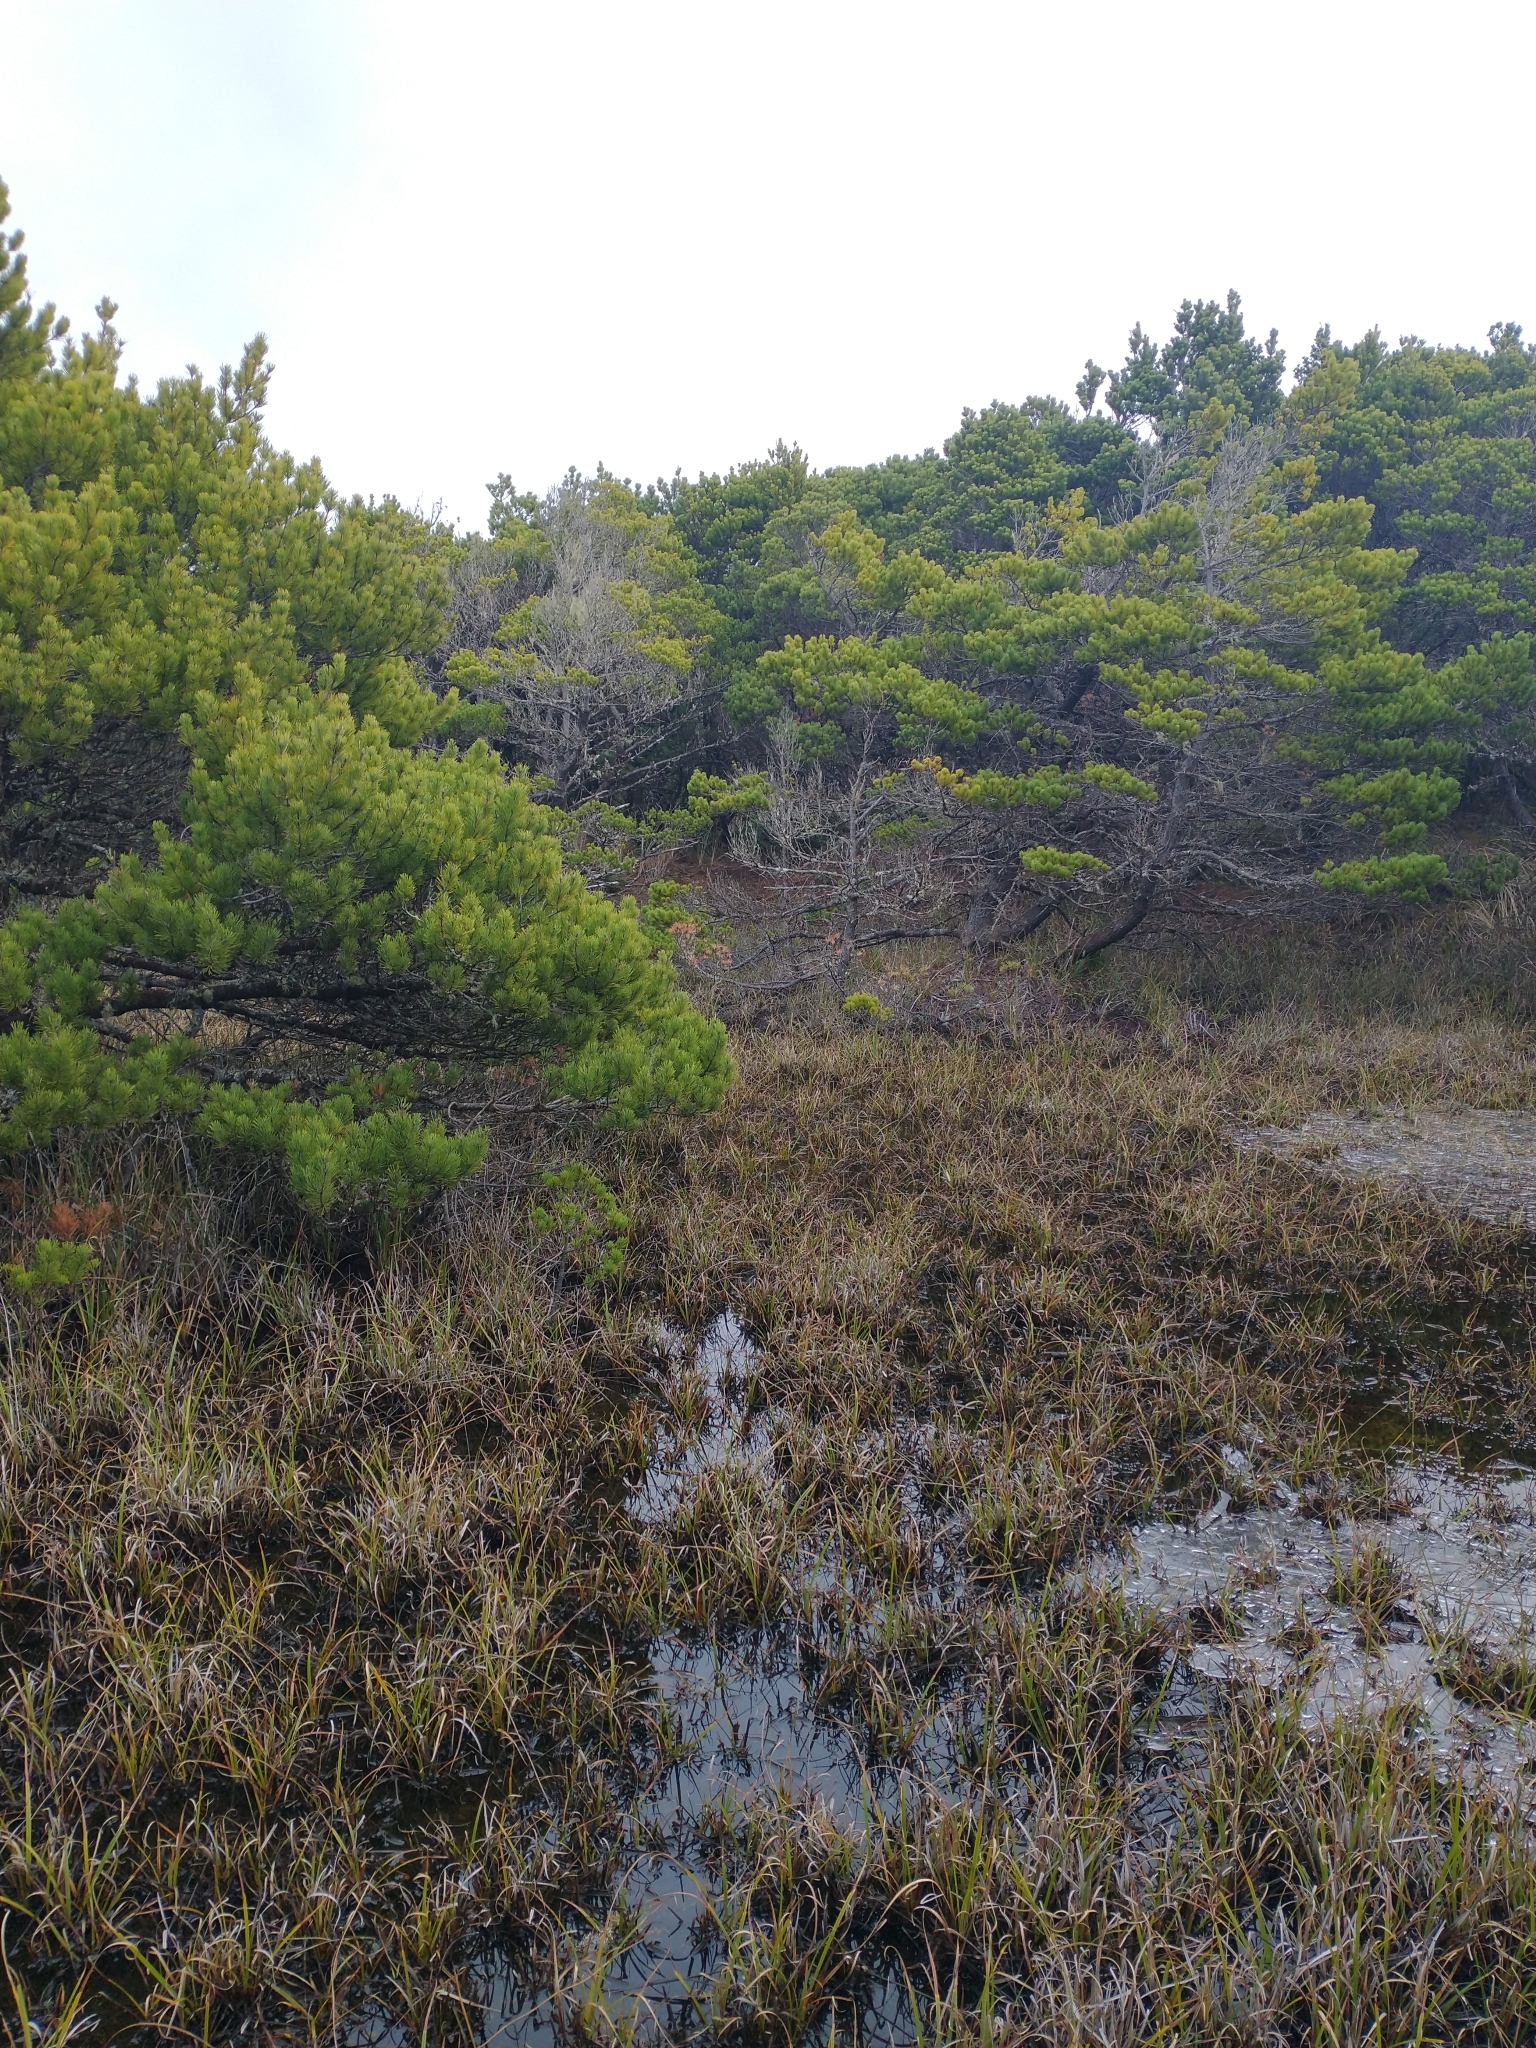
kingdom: Plantae
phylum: Tracheophyta
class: Pinopsida
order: Pinales
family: Pinaceae
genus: Pinus
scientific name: Pinus contorta
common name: Lodgepole pine
